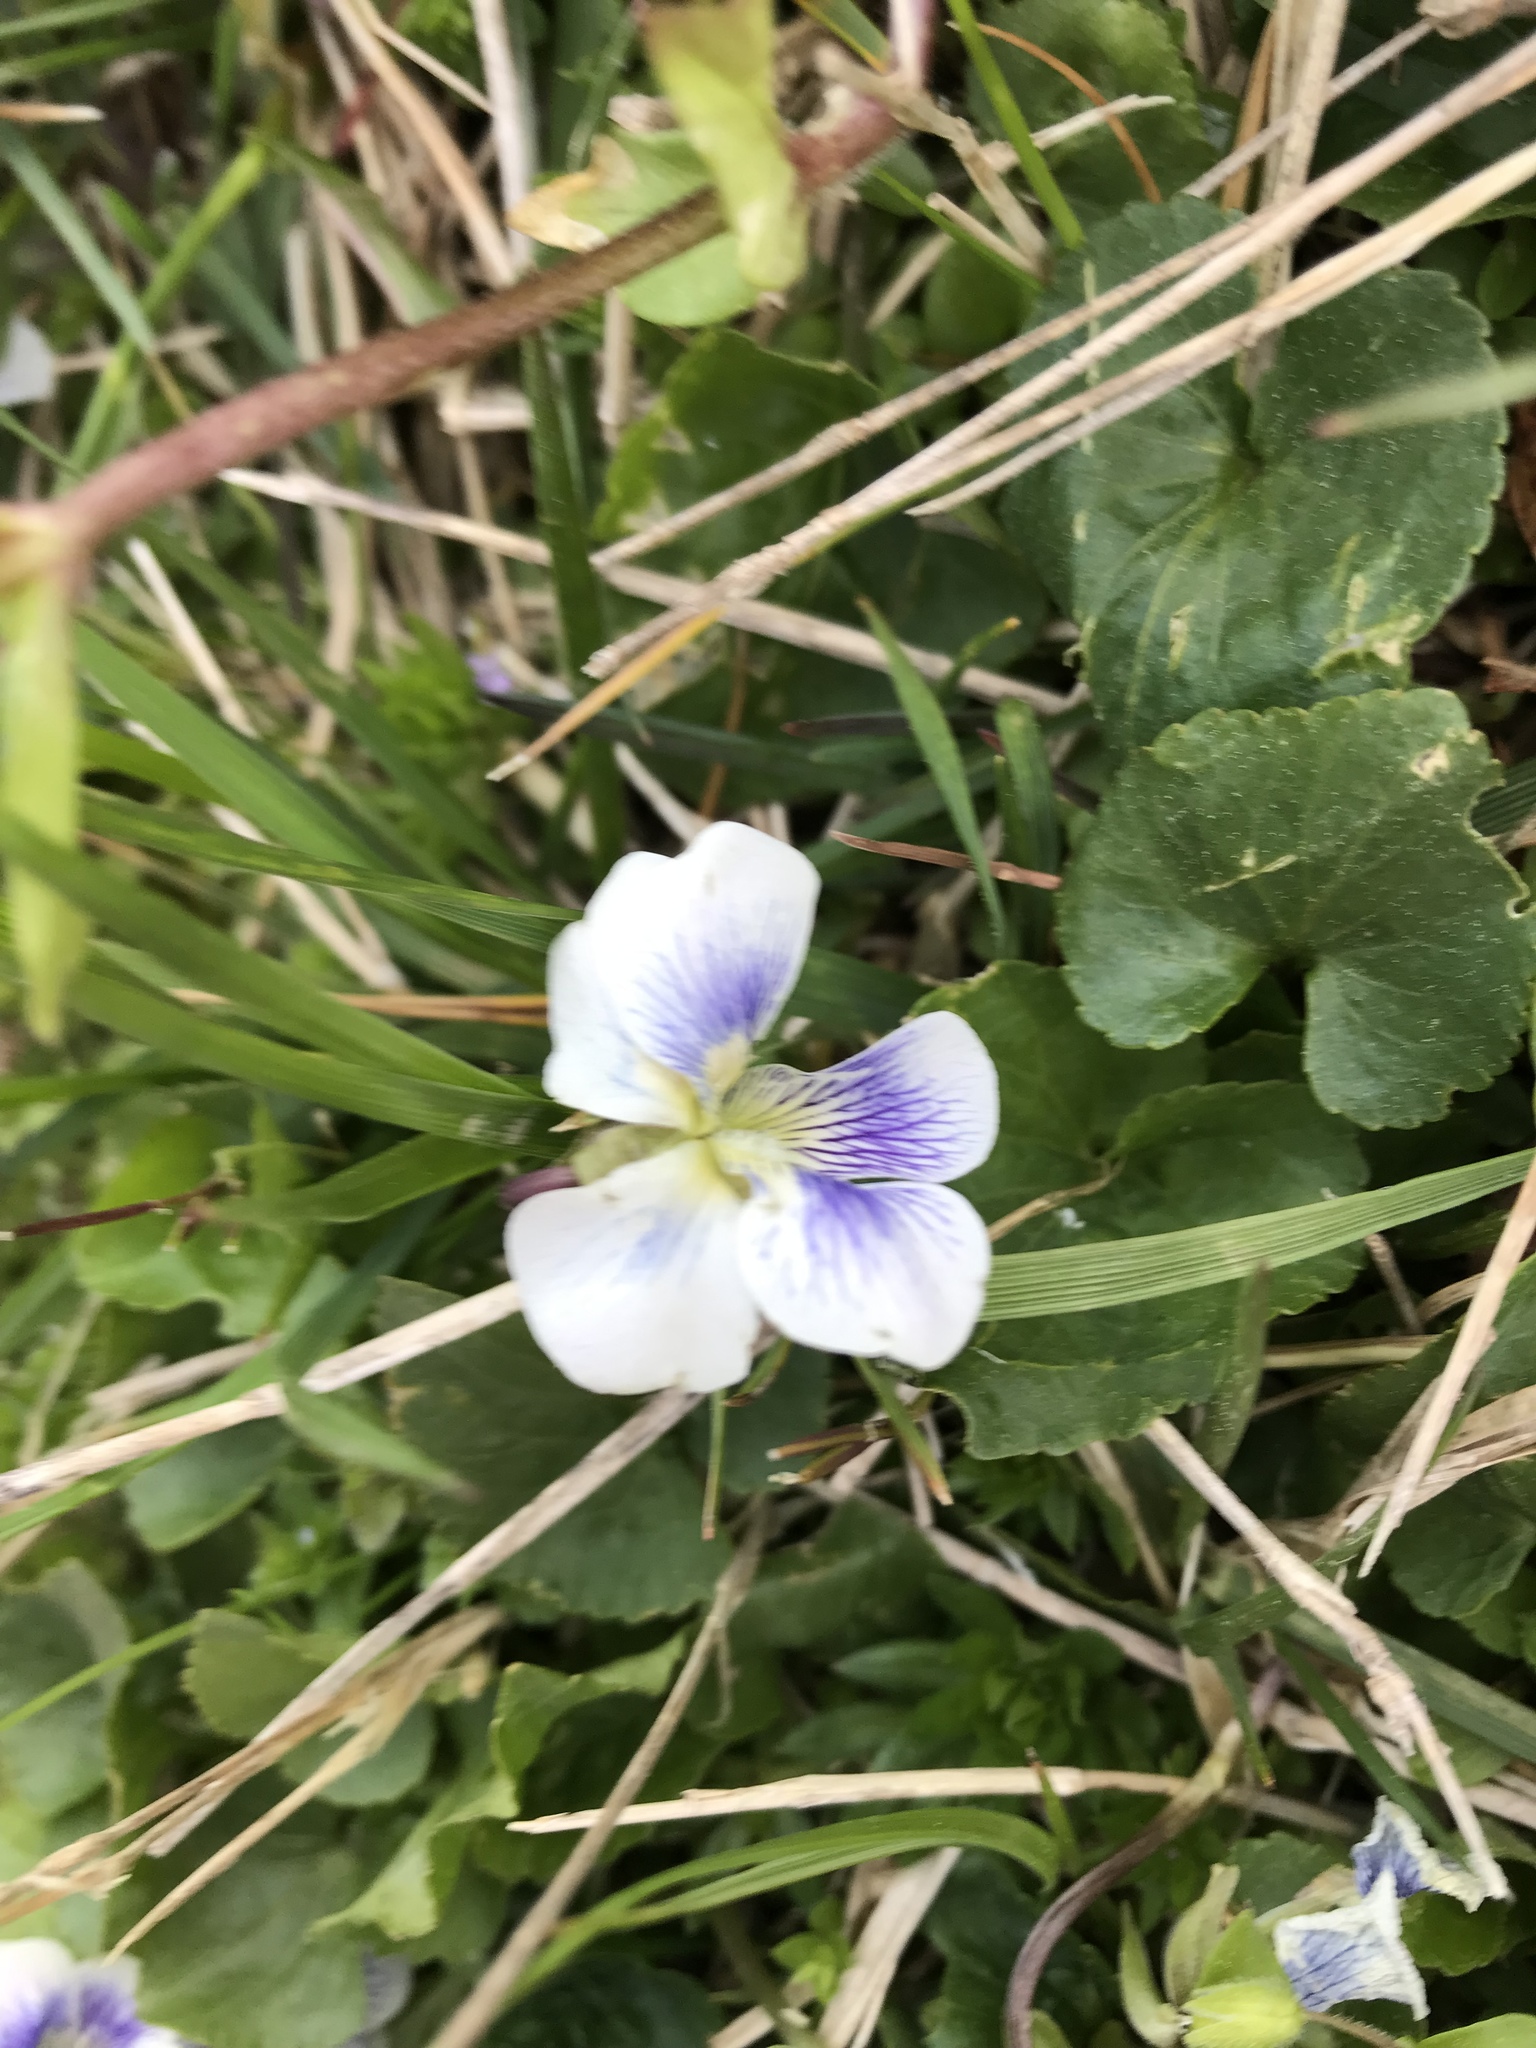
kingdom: Plantae
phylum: Tracheophyta
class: Magnoliopsida
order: Malpighiales
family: Violaceae
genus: Viola
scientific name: Viola sororia
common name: Dooryard violet
